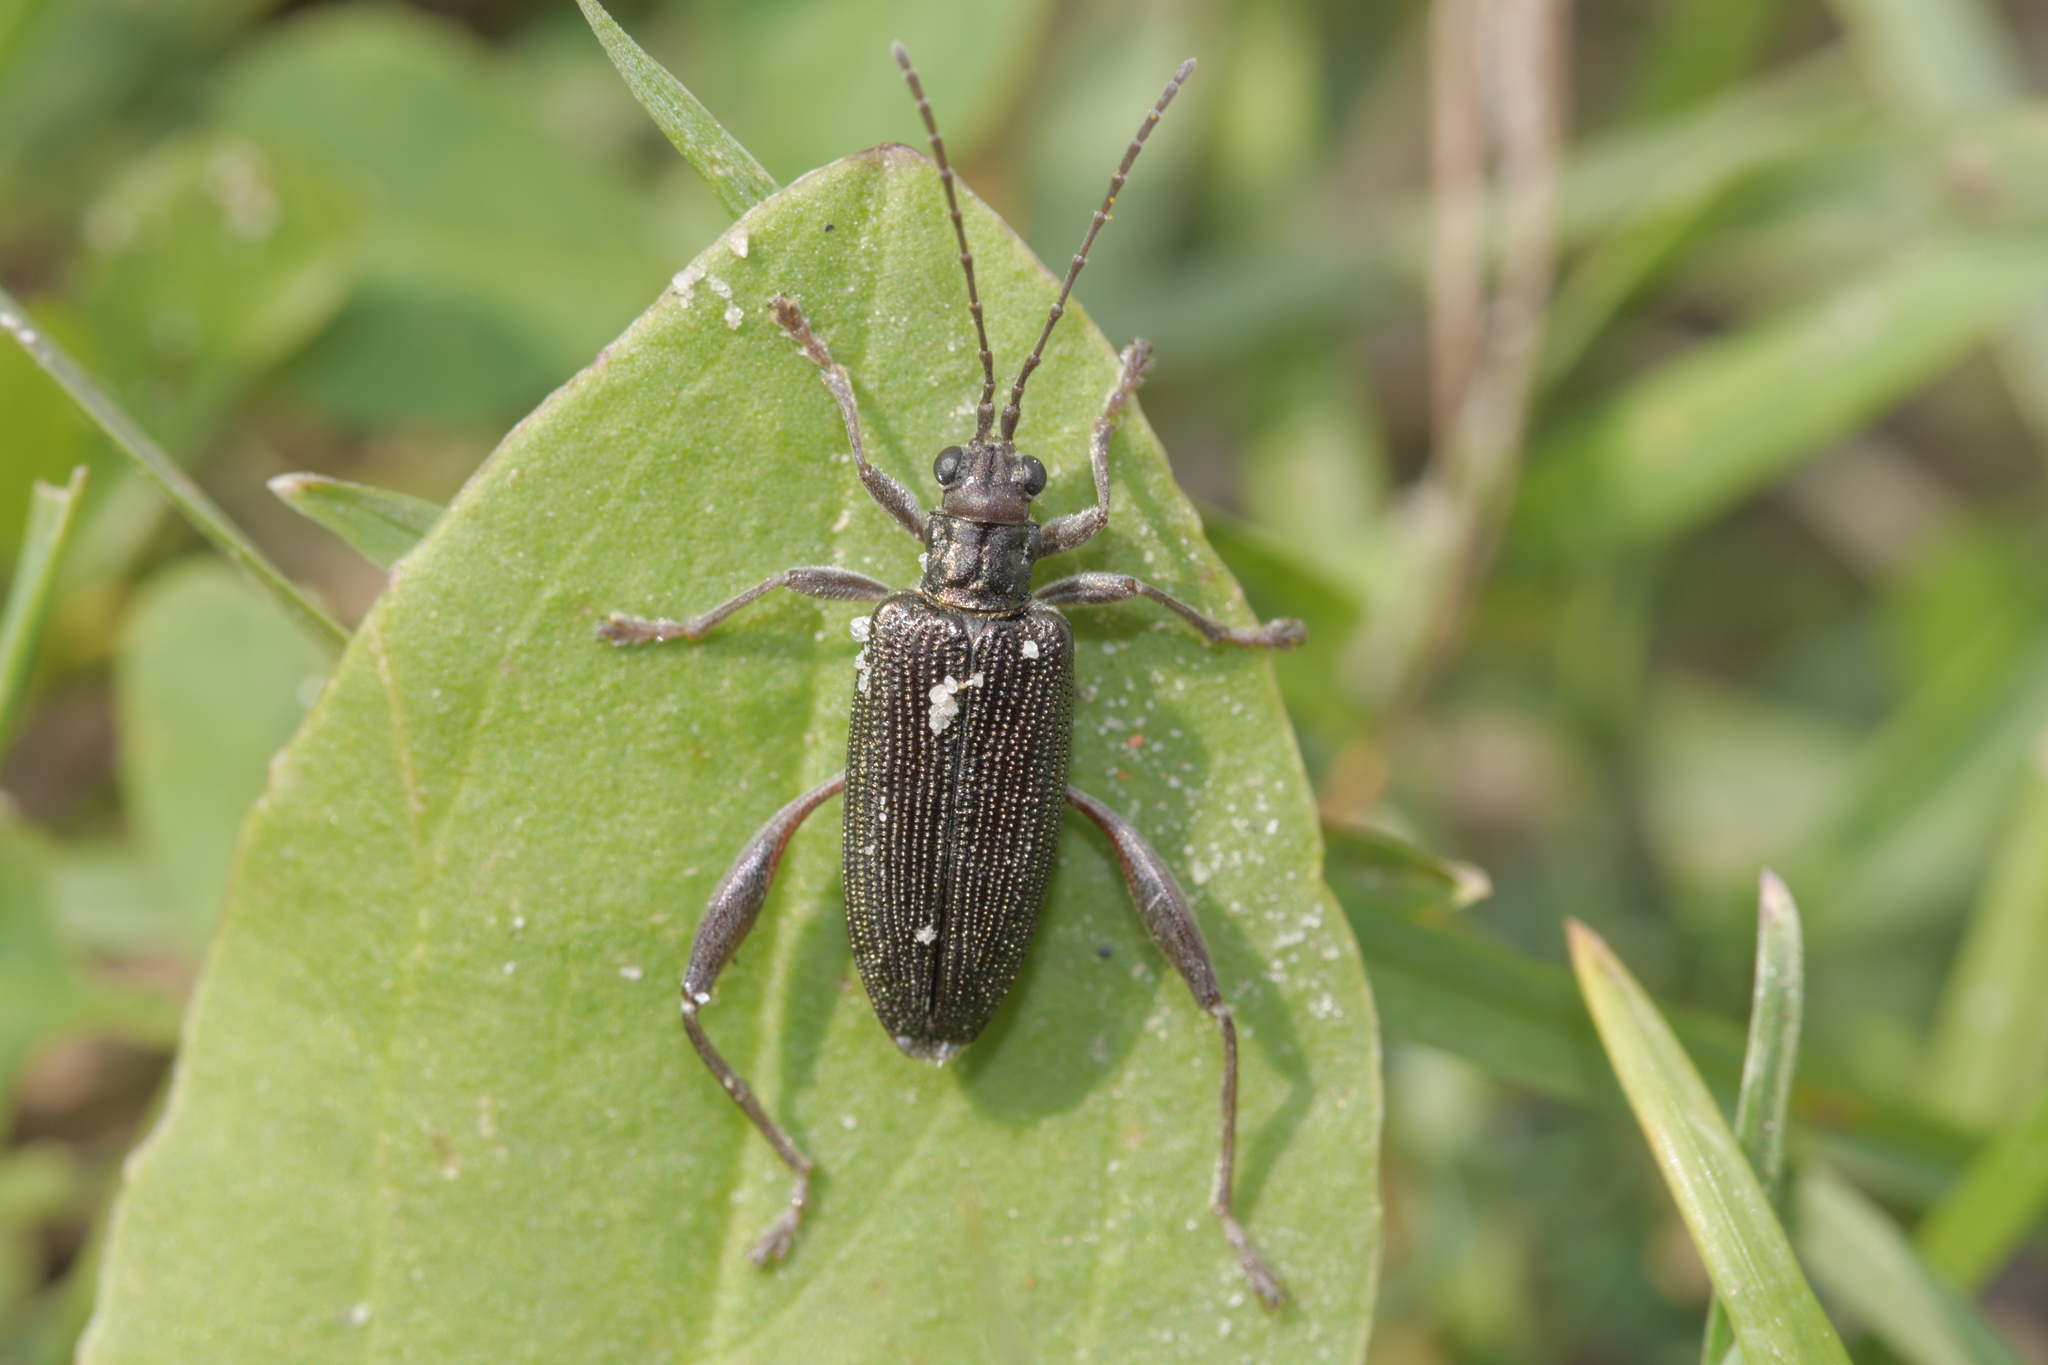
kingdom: Animalia
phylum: Arthropoda
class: Insecta
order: Coleoptera
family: Chrysomelidae
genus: Donacia
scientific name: Donacia crassipes
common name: Water-lily reed beetle
